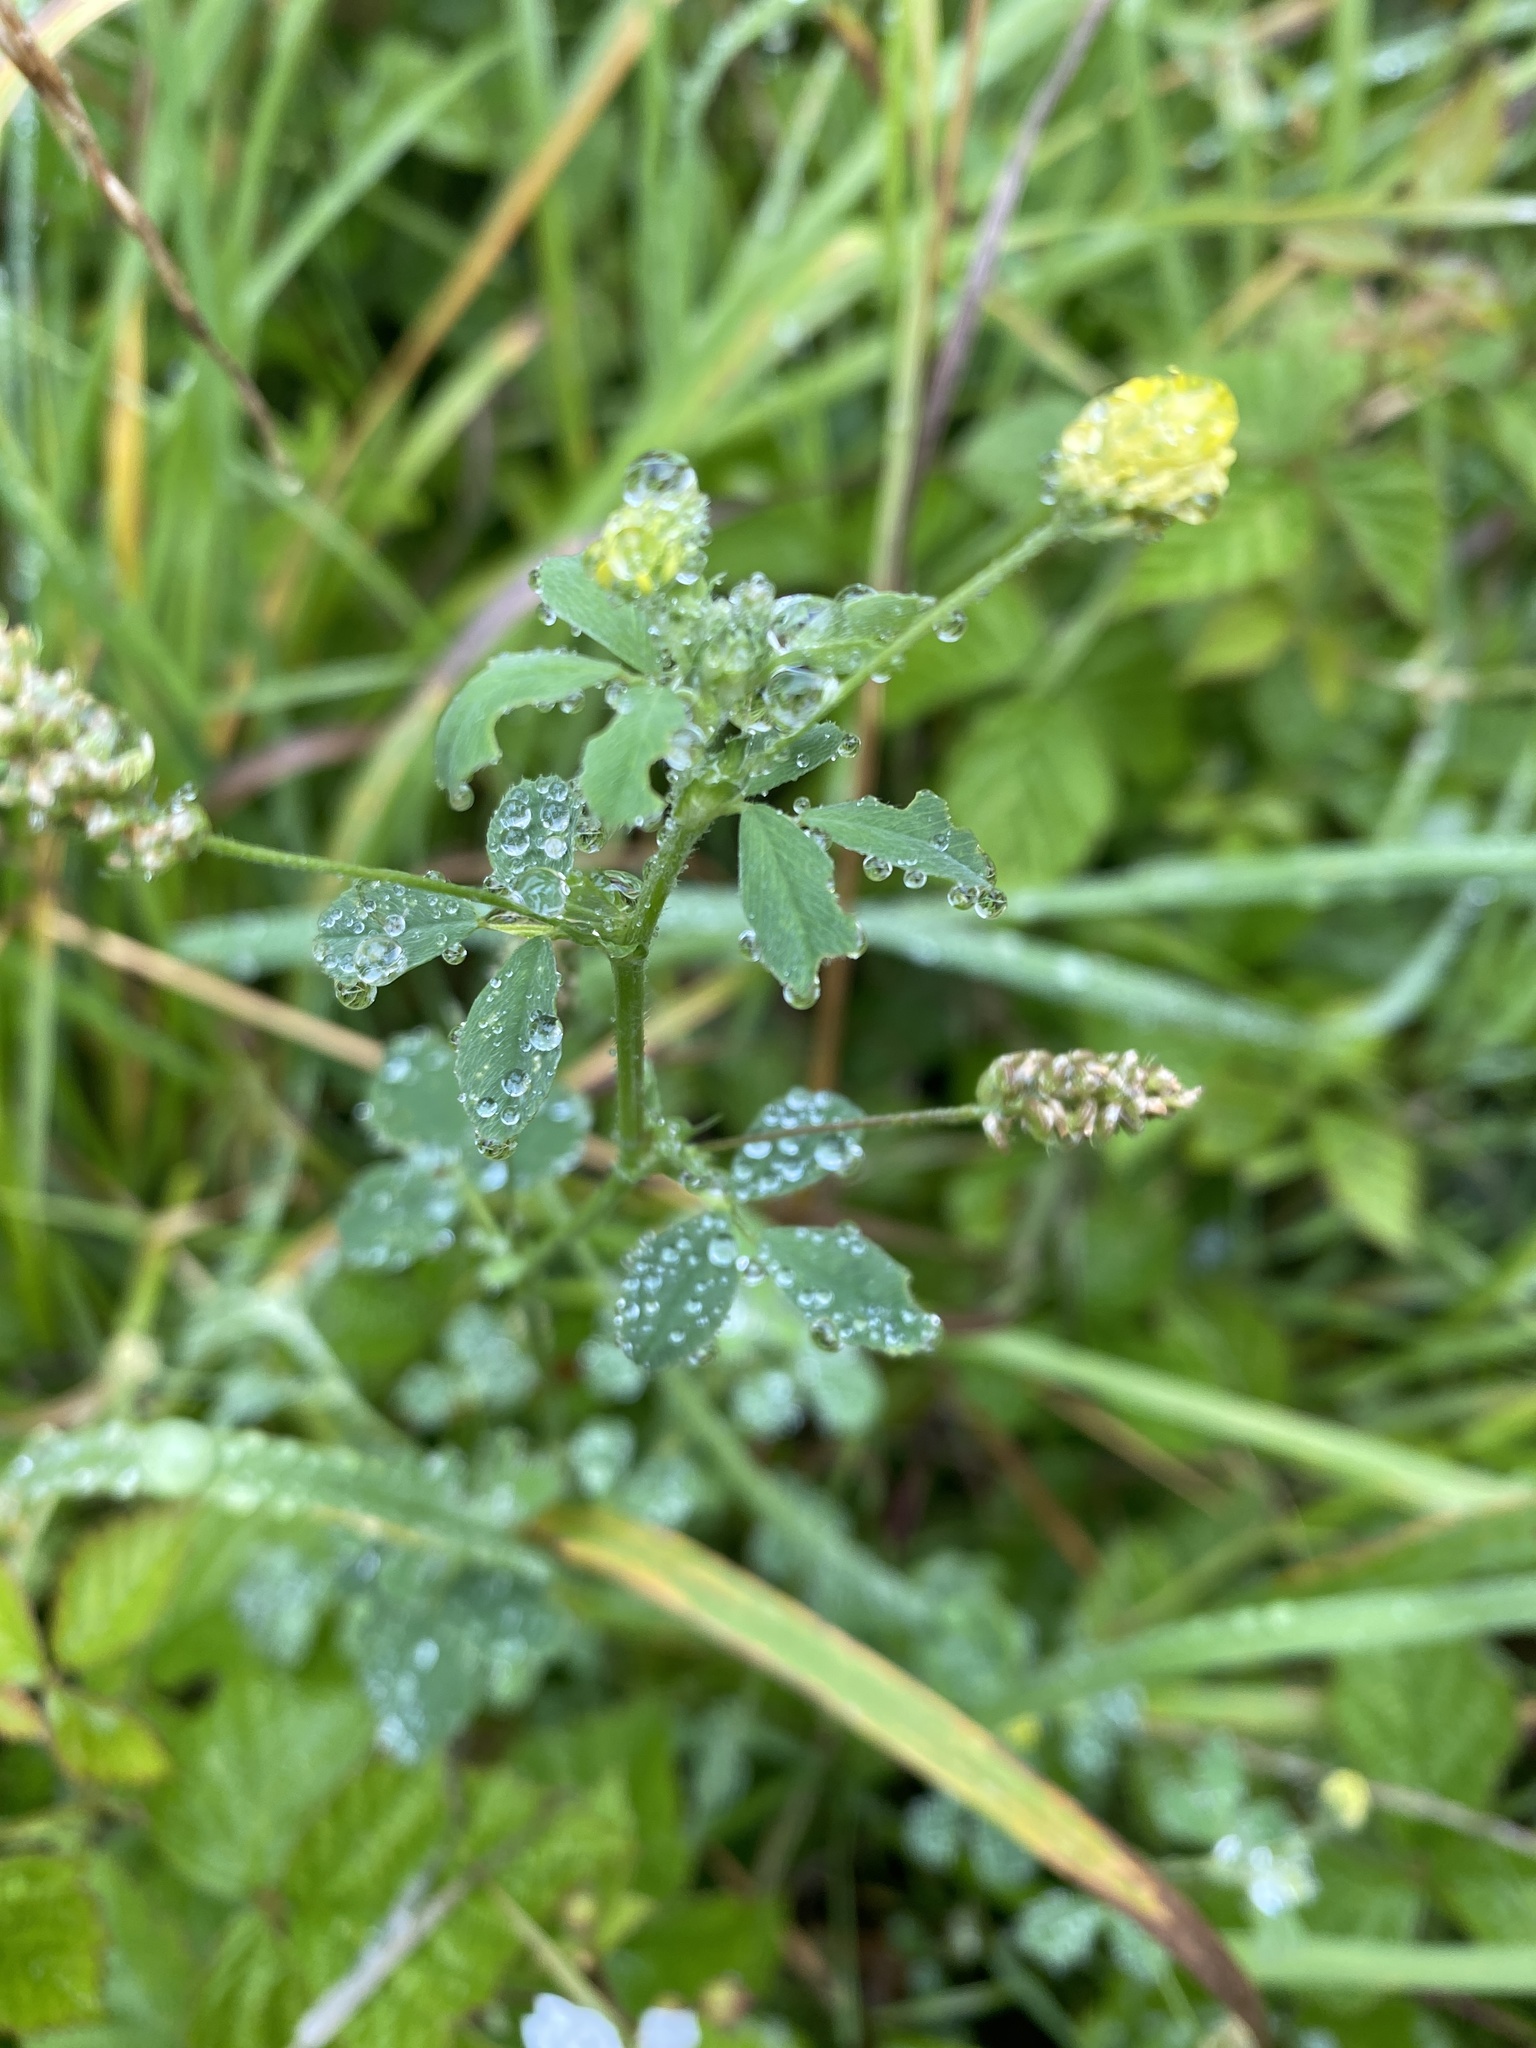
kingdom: Plantae
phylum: Tracheophyta
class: Magnoliopsida
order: Fabales
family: Fabaceae
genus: Medicago
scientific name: Medicago lupulina
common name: Black medick
